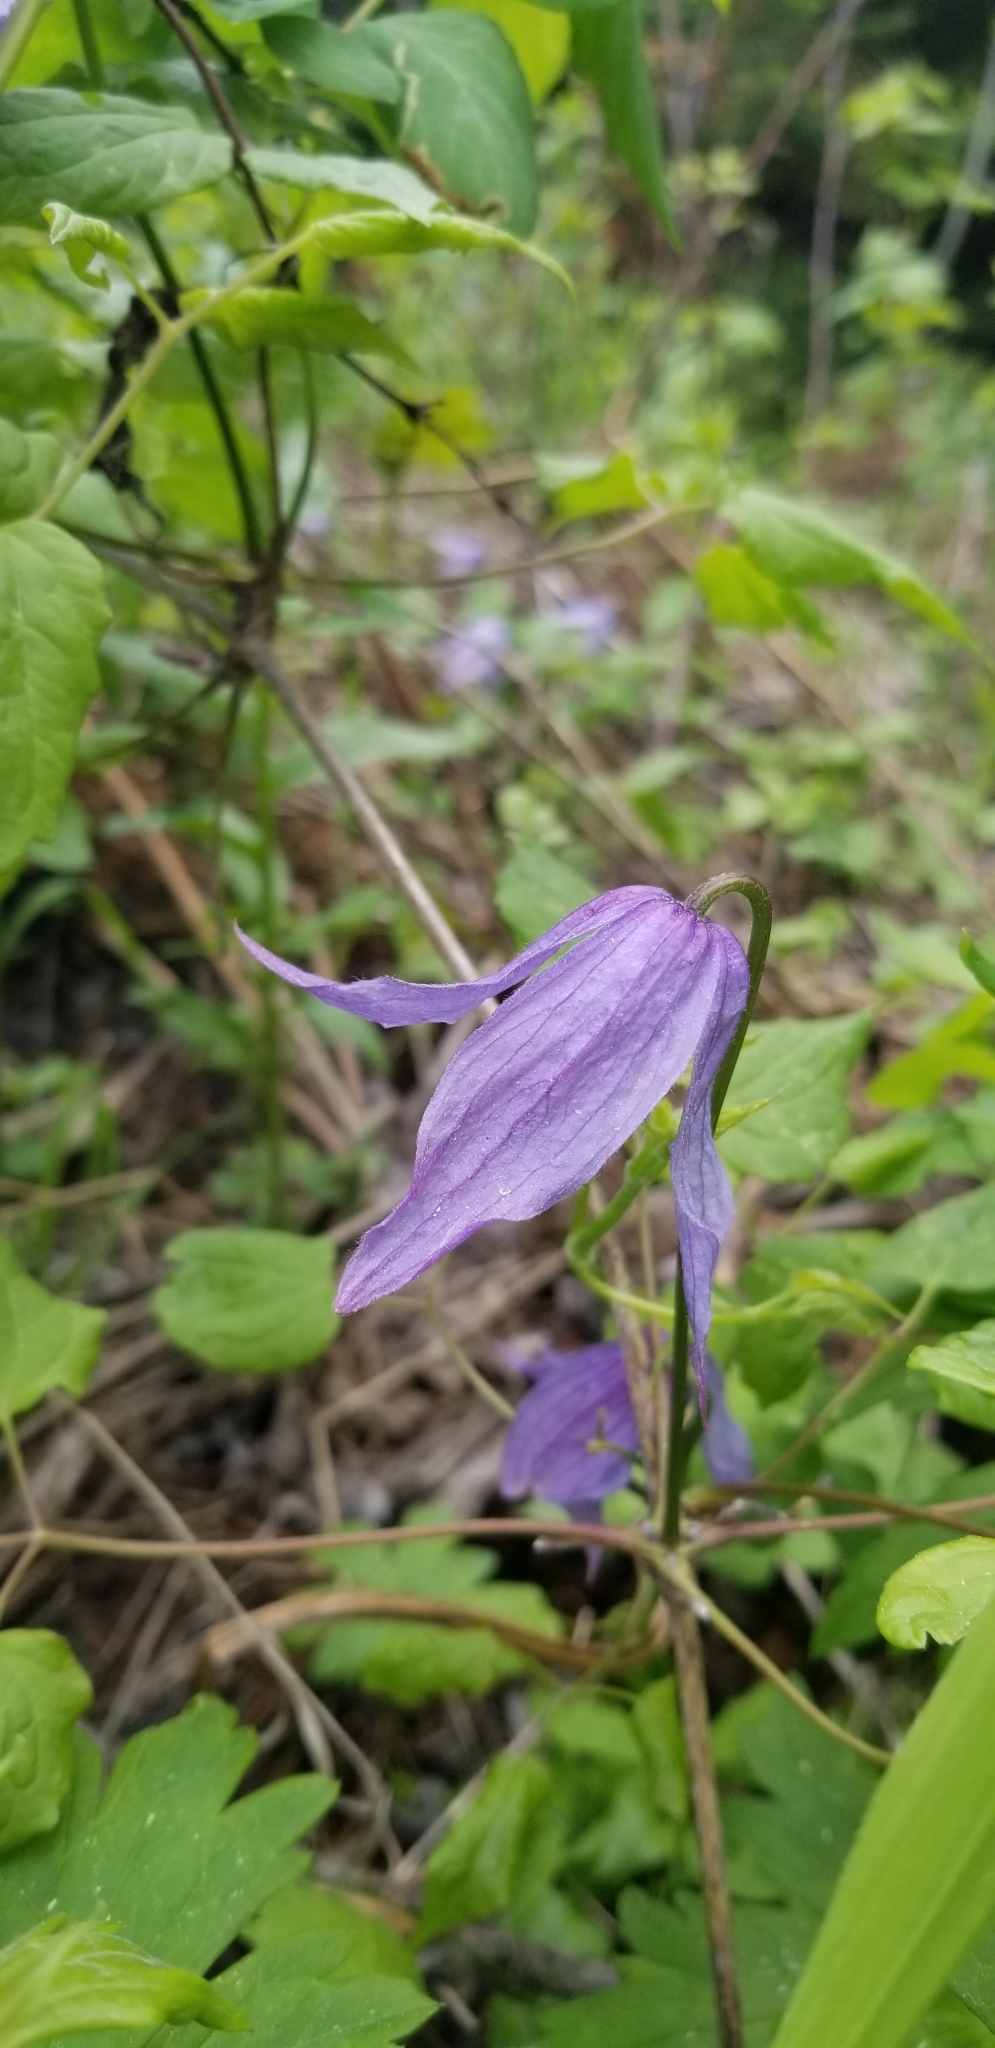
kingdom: Plantae
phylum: Tracheophyta
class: Magnoliopsida
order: Ranunculales
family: Ranunculaceae
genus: Clematis
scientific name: Clematis occidentalis
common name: Purple clematis
